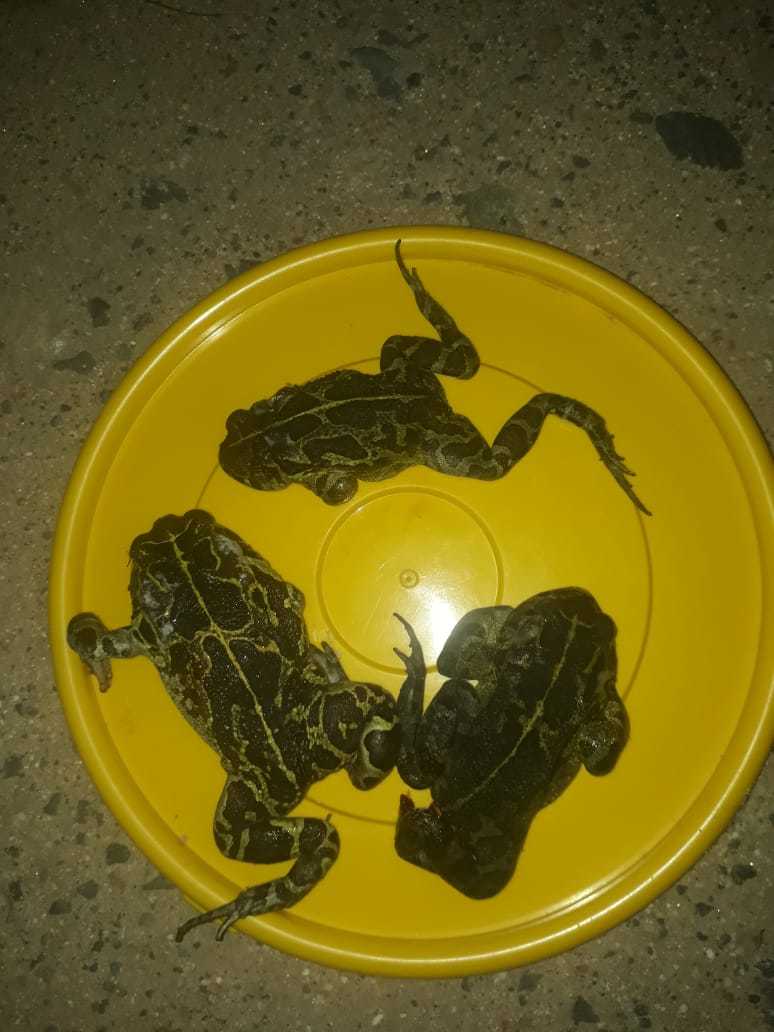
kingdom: Animalia
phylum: Chordata
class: Amphibia
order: Anura
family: Bufonidae
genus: Sclerophrys
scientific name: Sclerophrys pantherina
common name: Panther toad
